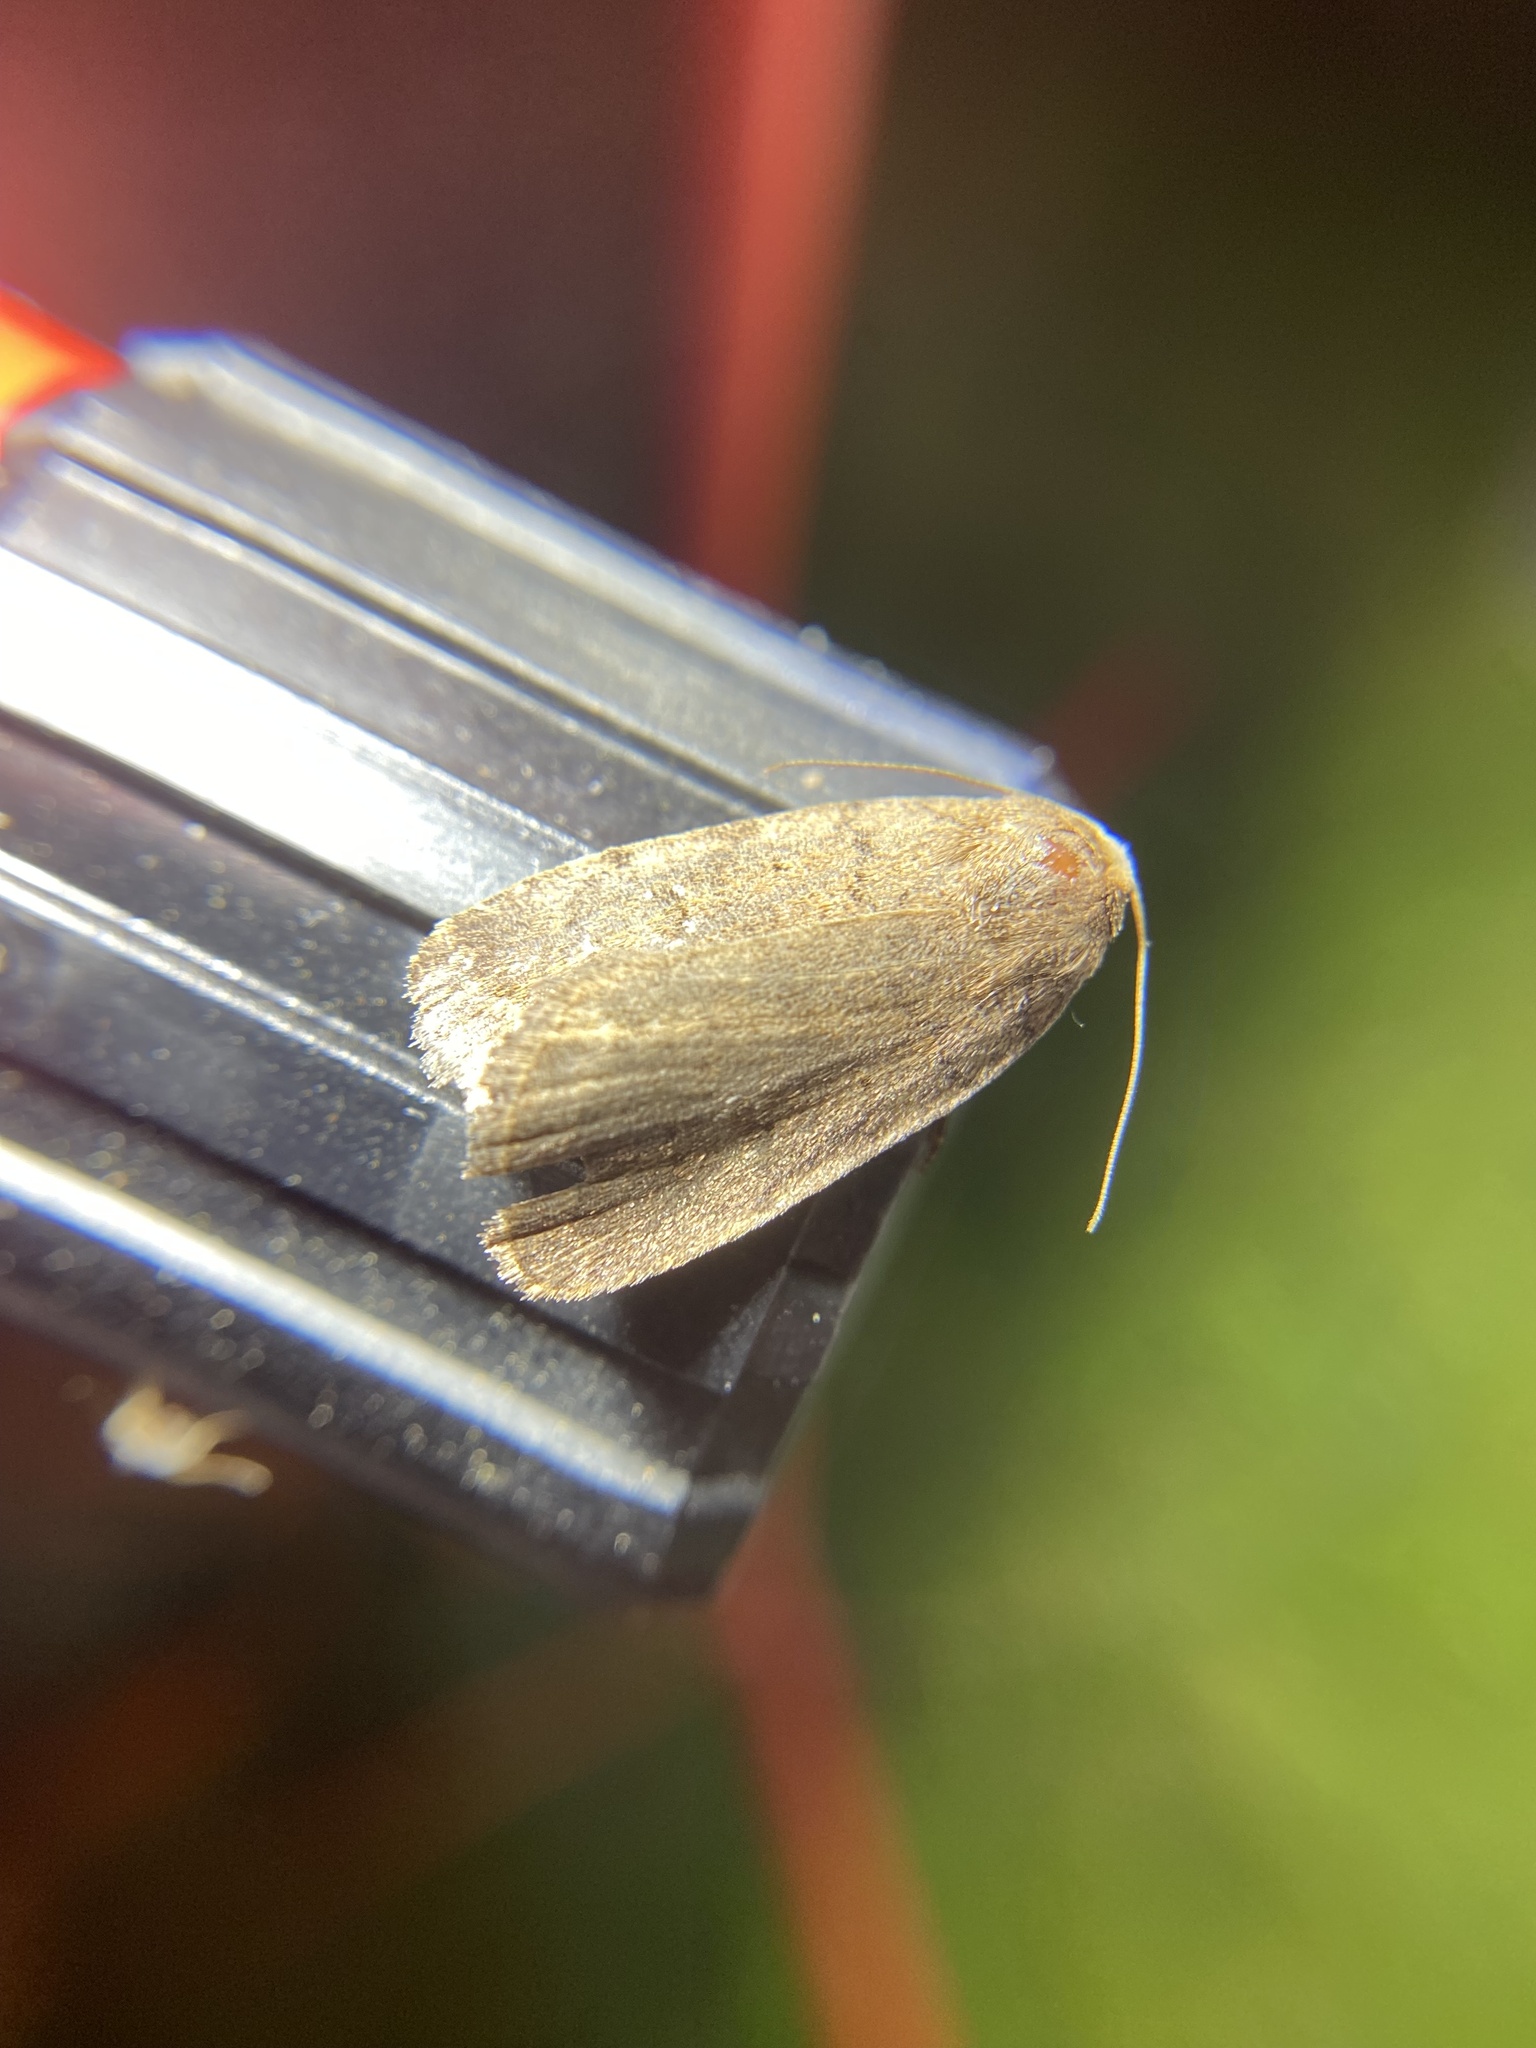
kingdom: Animalia
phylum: Arthropoda
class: Insecta
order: Lepidoptera
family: Noctuidae
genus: Athetis
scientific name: Athetis tarda
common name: Slowpoke moth
